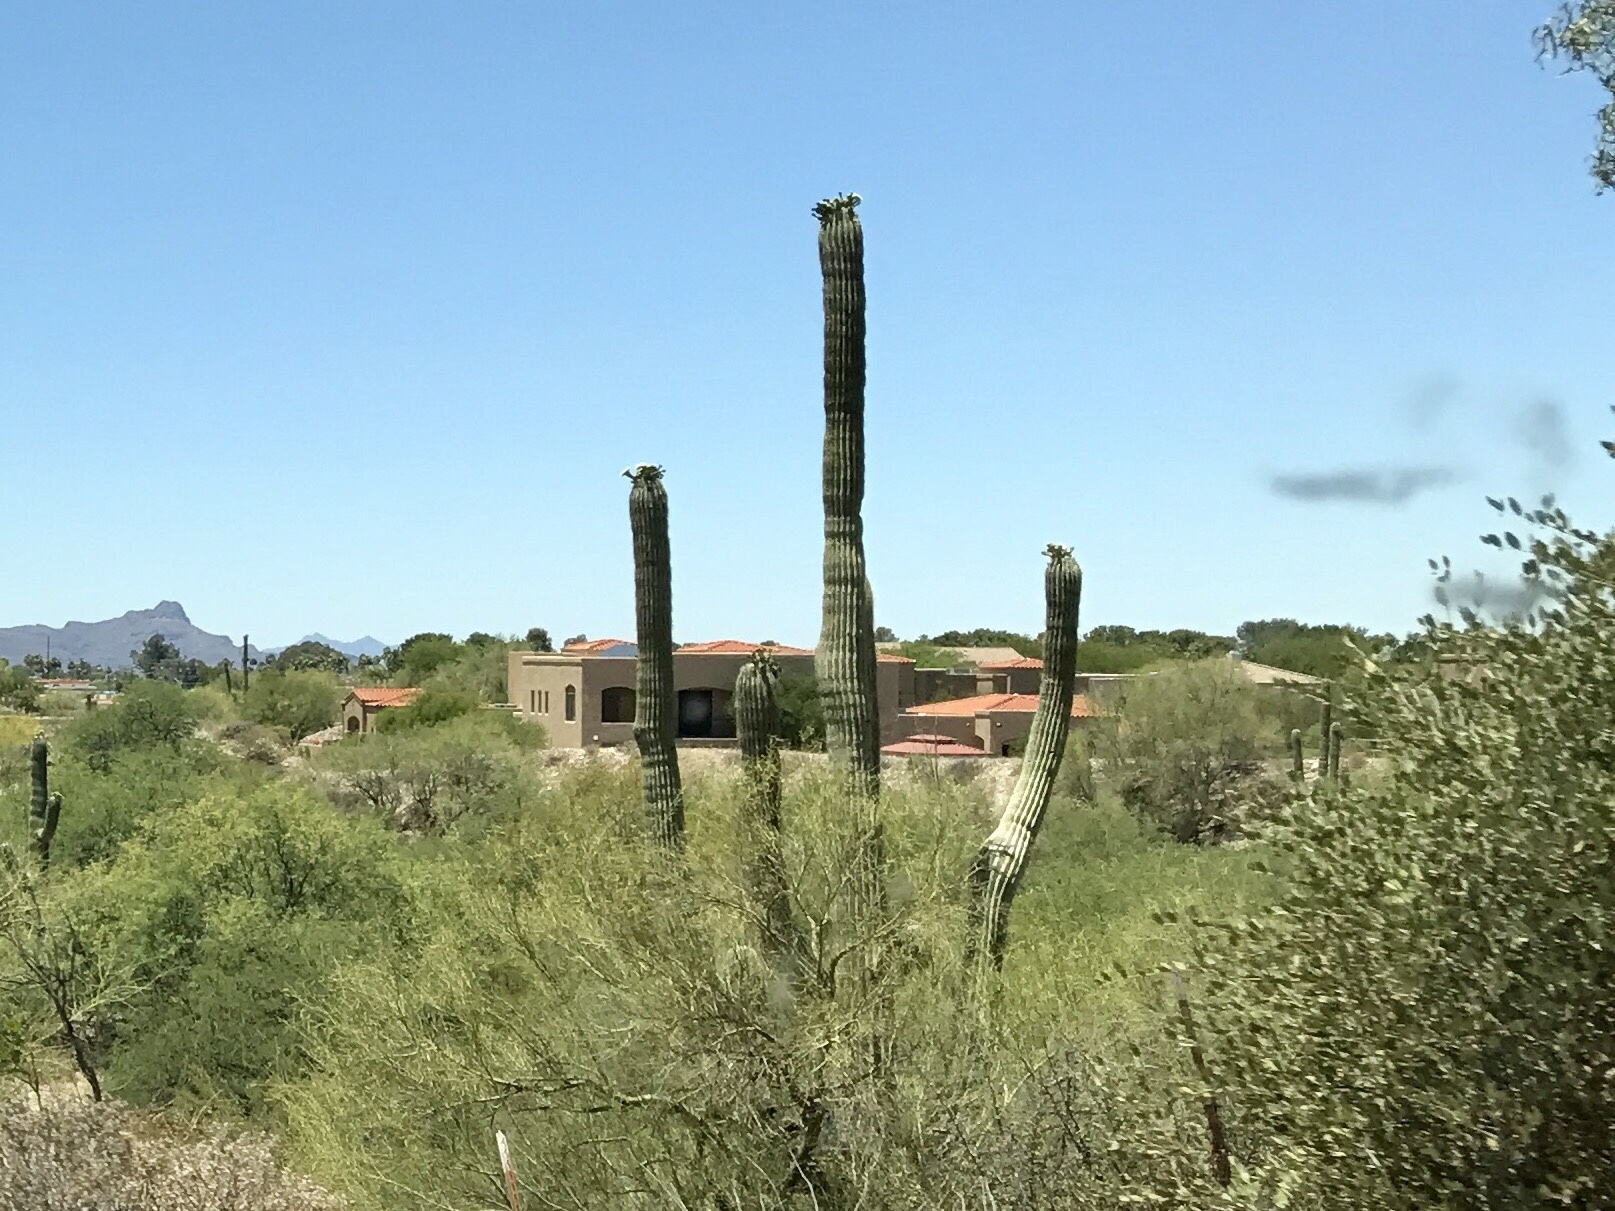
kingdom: Plantae
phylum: Tracheophyta
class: Magnoliopsida
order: Caryophyllales
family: Cactaceae
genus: Carnegiea
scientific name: Carnegiea gigantea
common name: Saguaro
